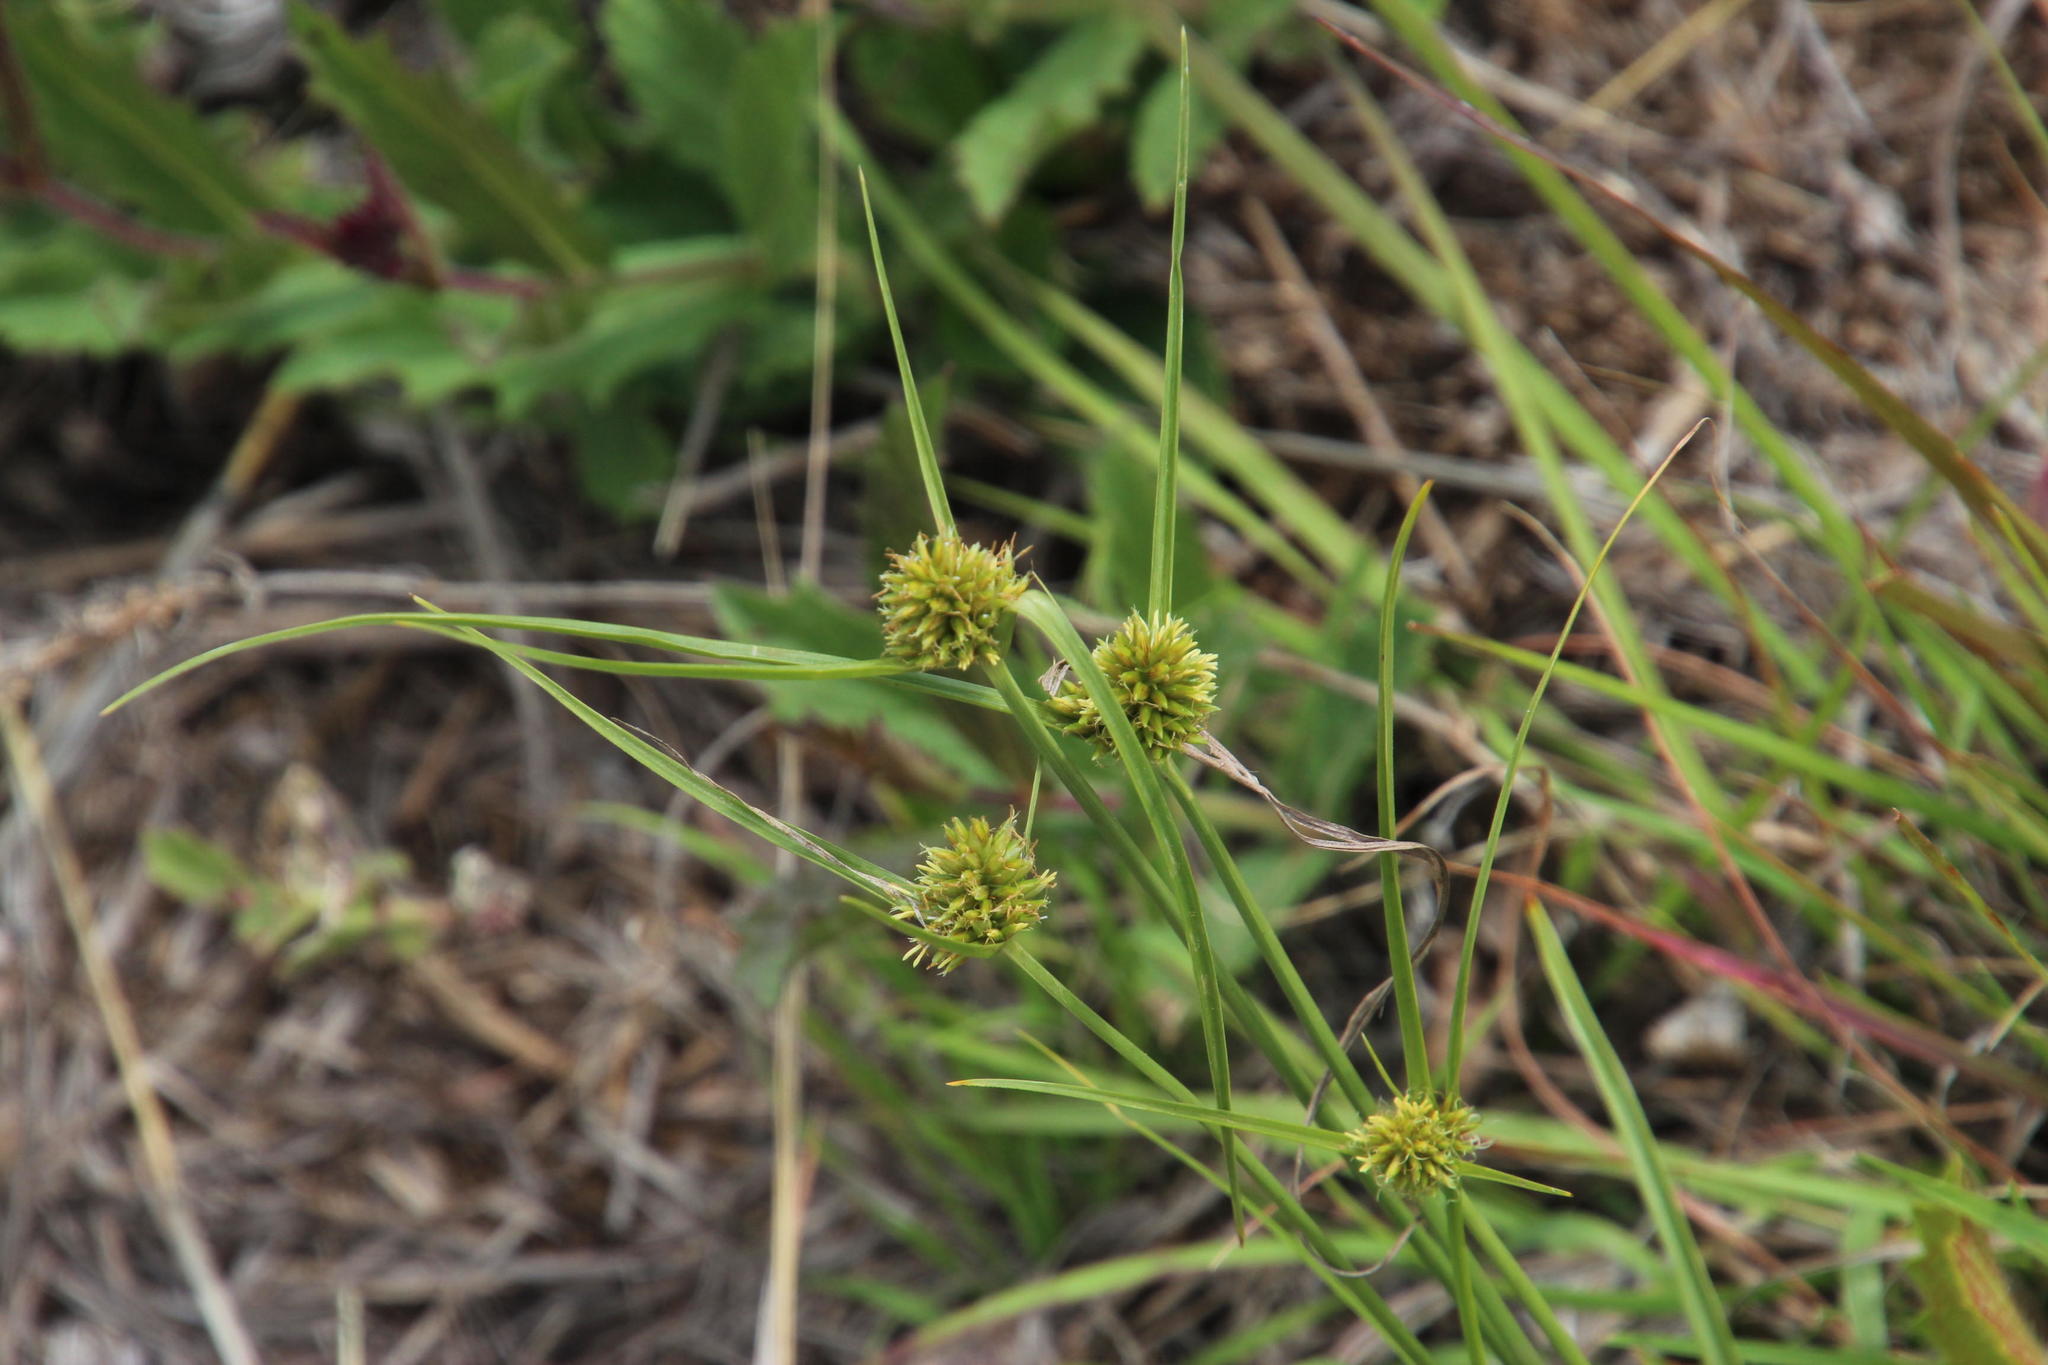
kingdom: Plantae
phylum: Tracheophyta
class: Liliopsida
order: Poales
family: Cyperaceae
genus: Cyperus
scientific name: Cyperus brevifolius
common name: Globe kyllinga
